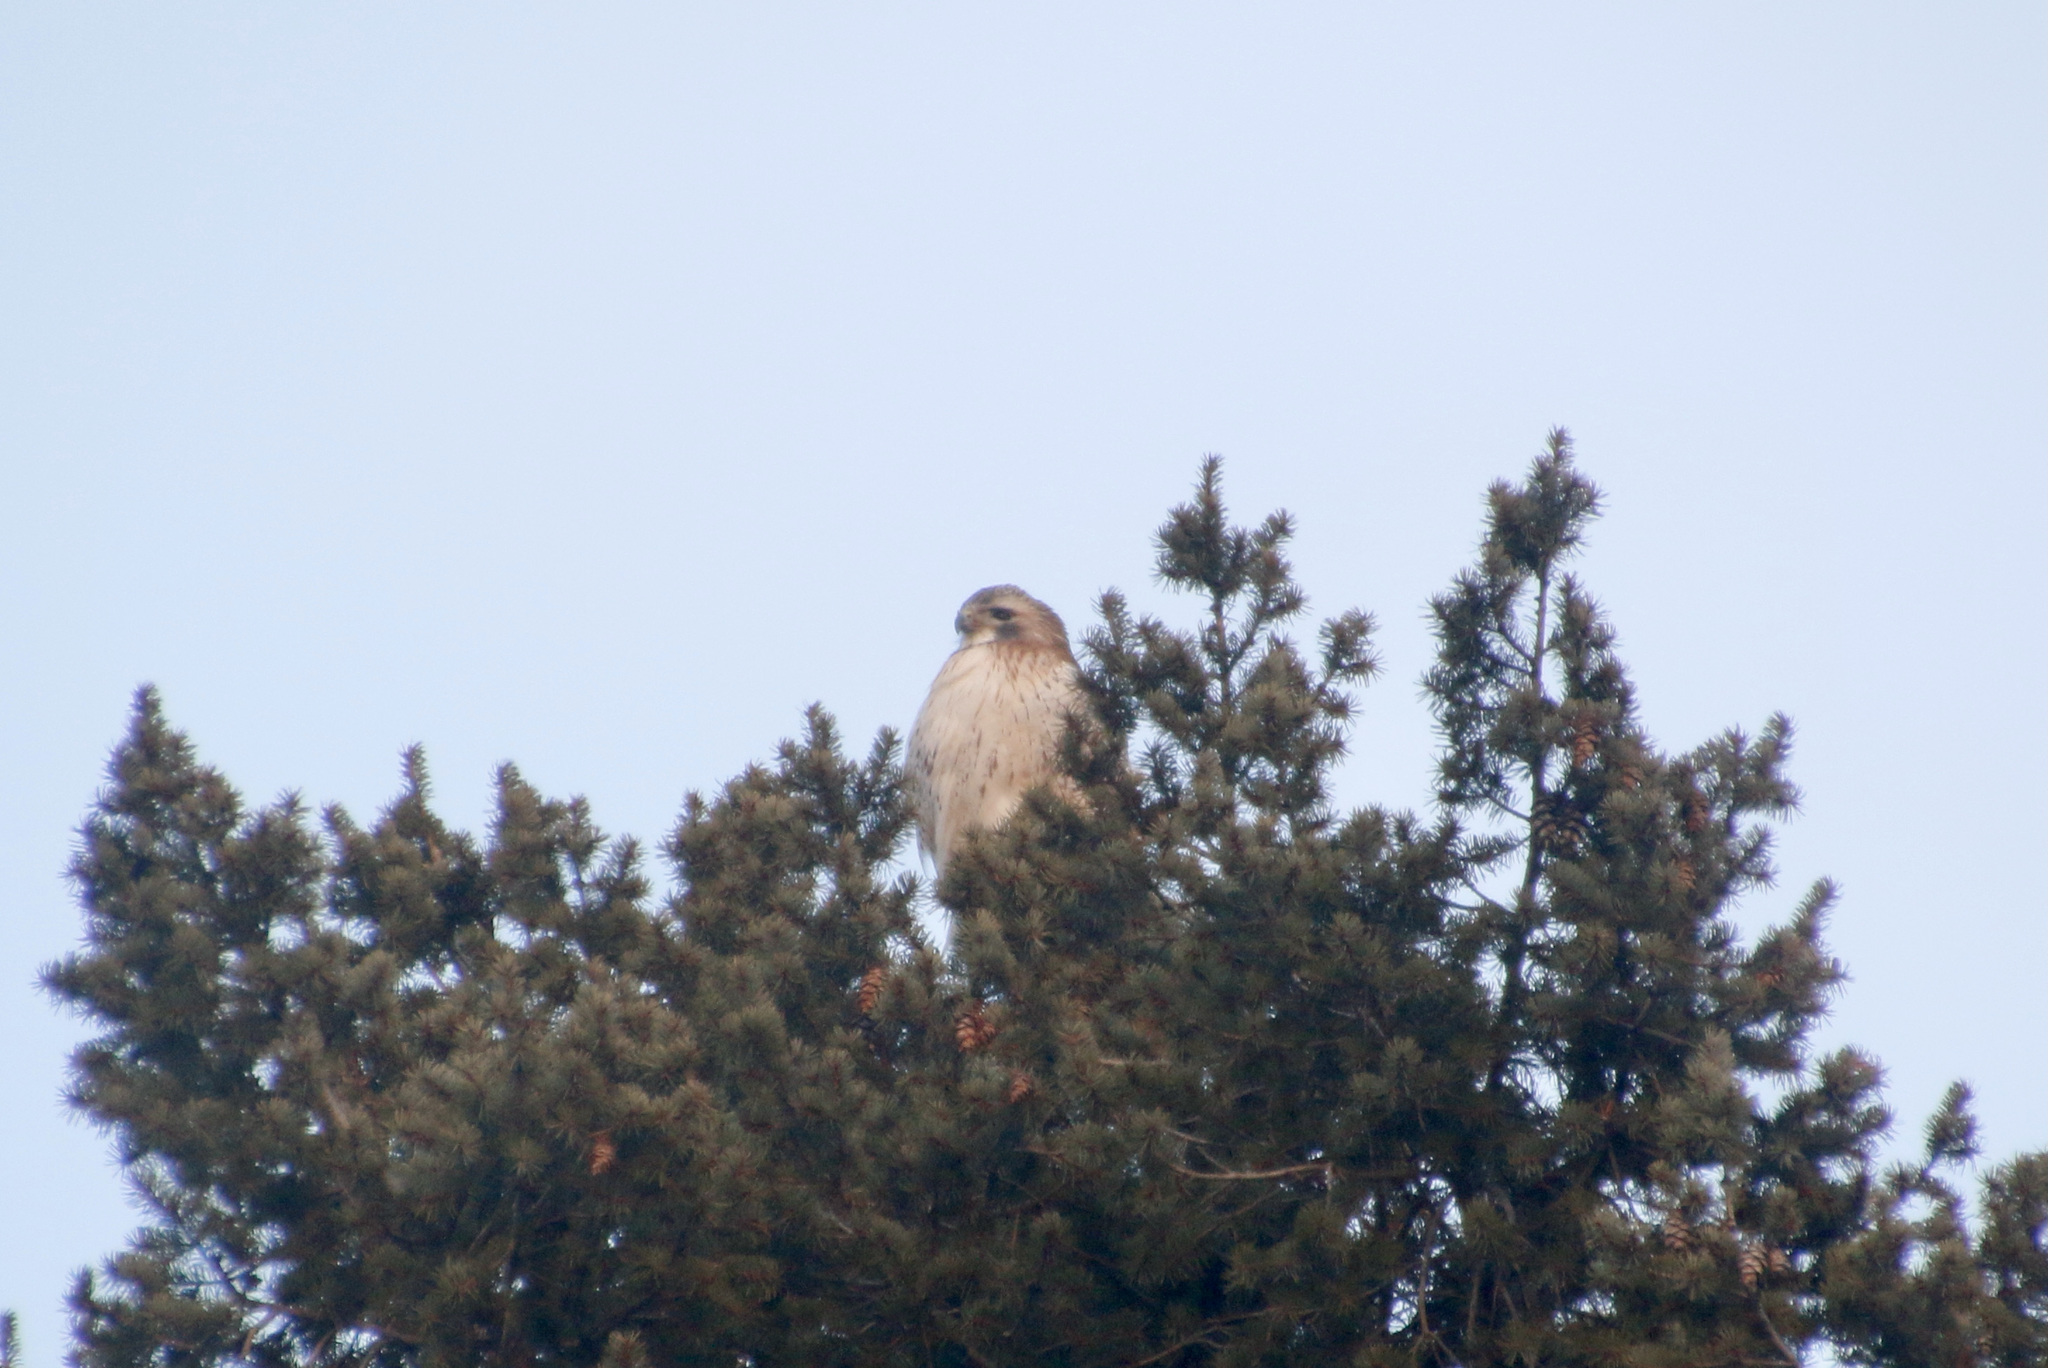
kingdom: Animalia
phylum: Chordata
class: Aves
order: Accipitriformes
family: Accipitridae
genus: Buteo
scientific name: Buteo jamaicensis
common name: Red-tailed hawk
